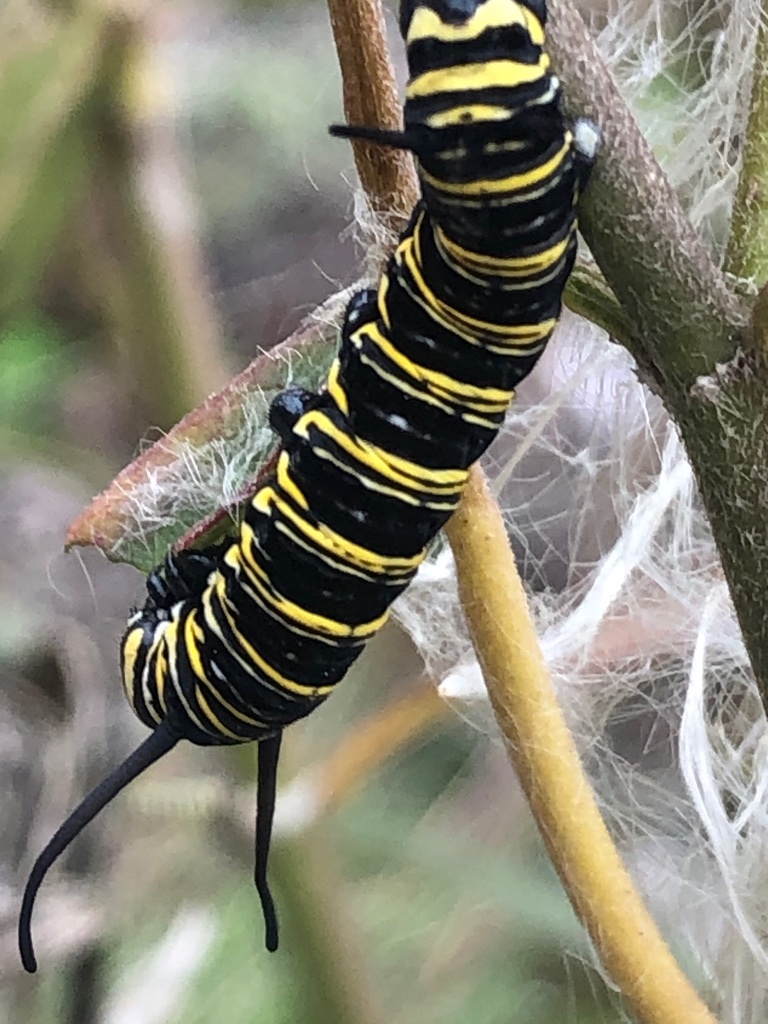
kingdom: Animalia
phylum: Arthropoda
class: Insecta
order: Lepidoptera
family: Nymphalidae
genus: Danaus
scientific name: Danaus plexippus
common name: Monarch
